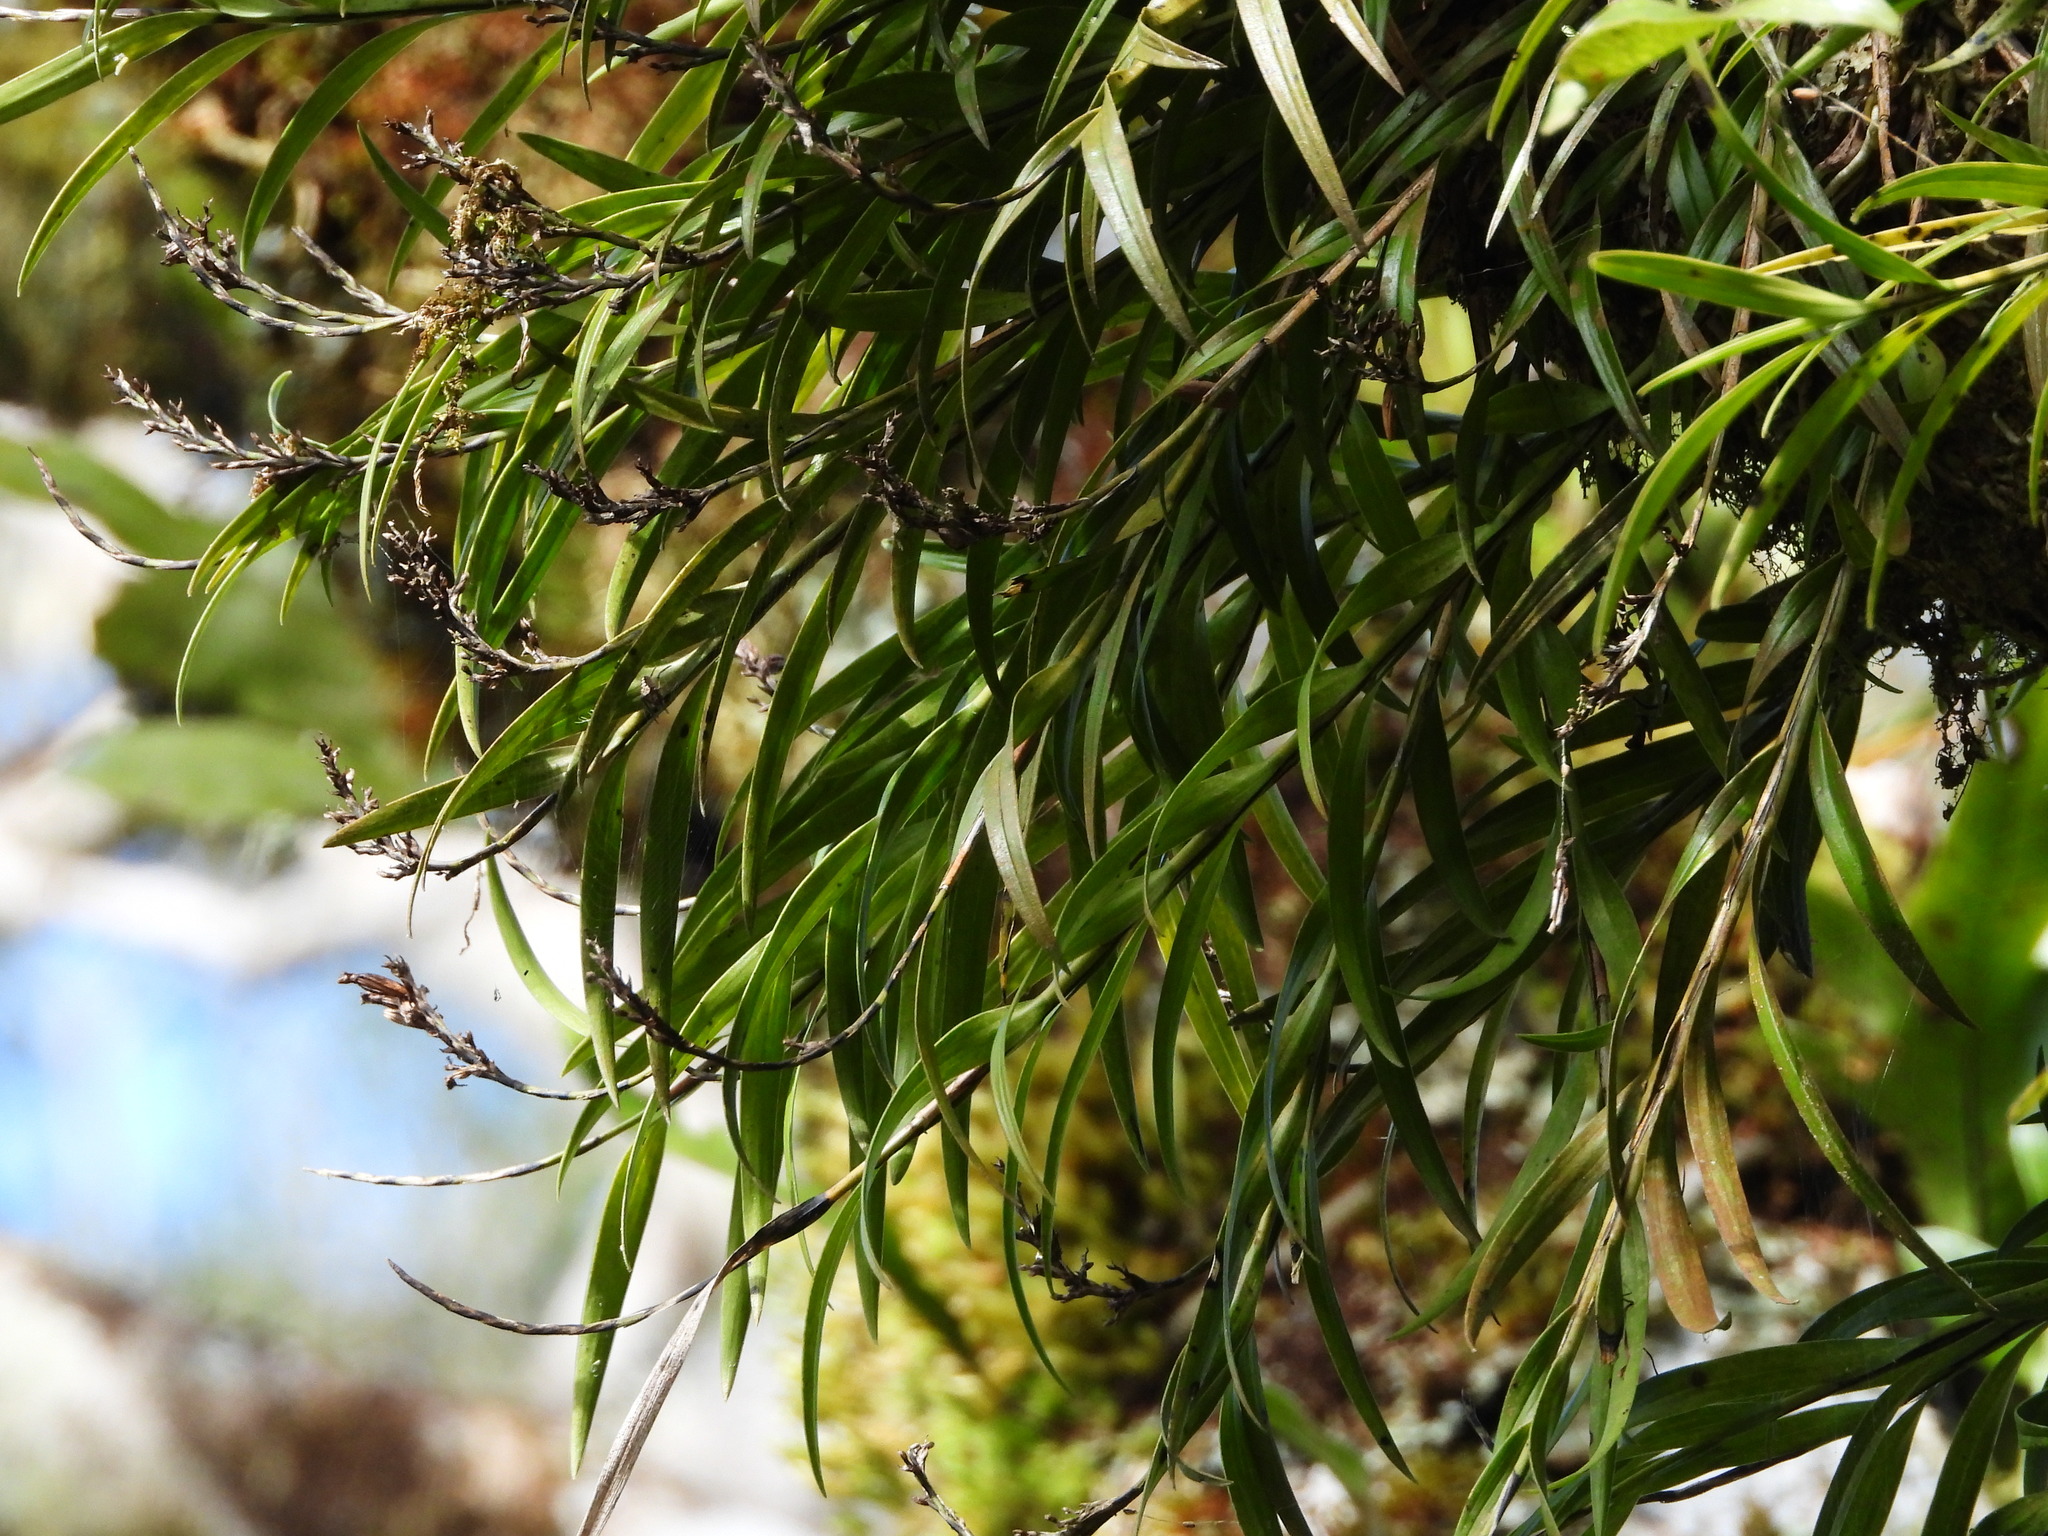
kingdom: Plantae
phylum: Tracheophyta
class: Liliopsida
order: Asparagales
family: Orchidaceae
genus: Earina
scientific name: Earina autumnalis
